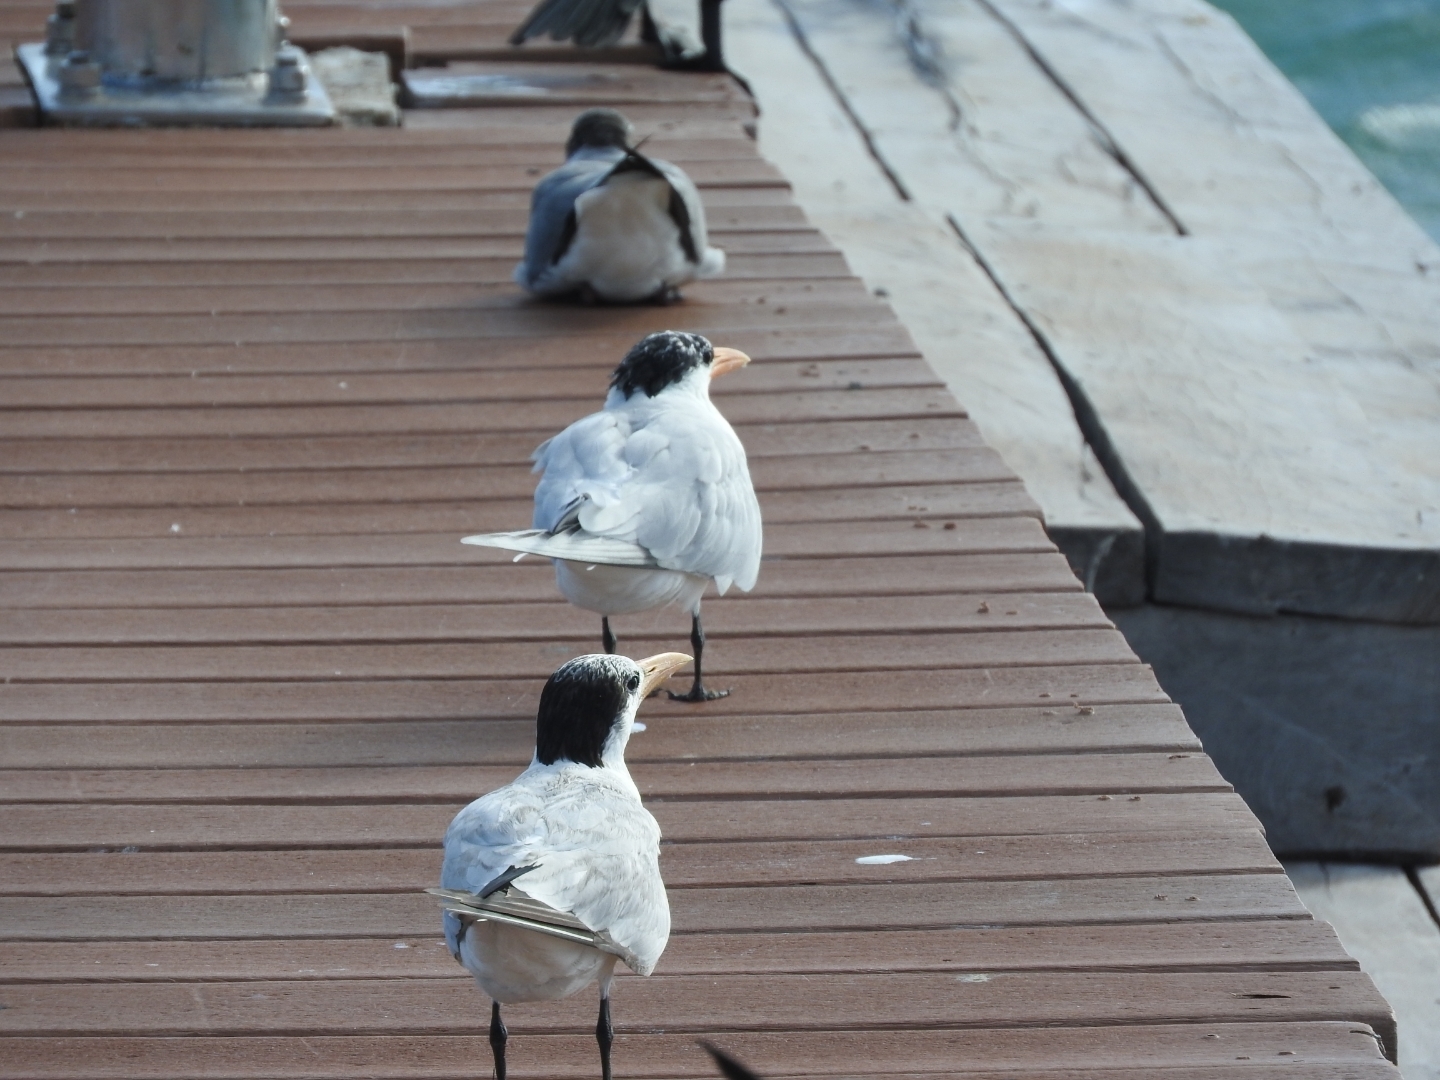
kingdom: Animalia
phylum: Chordata
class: Aves
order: Charadriiformes
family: Laridae
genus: Thalasseus
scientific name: Thalasseus maximus
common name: Royal tern
